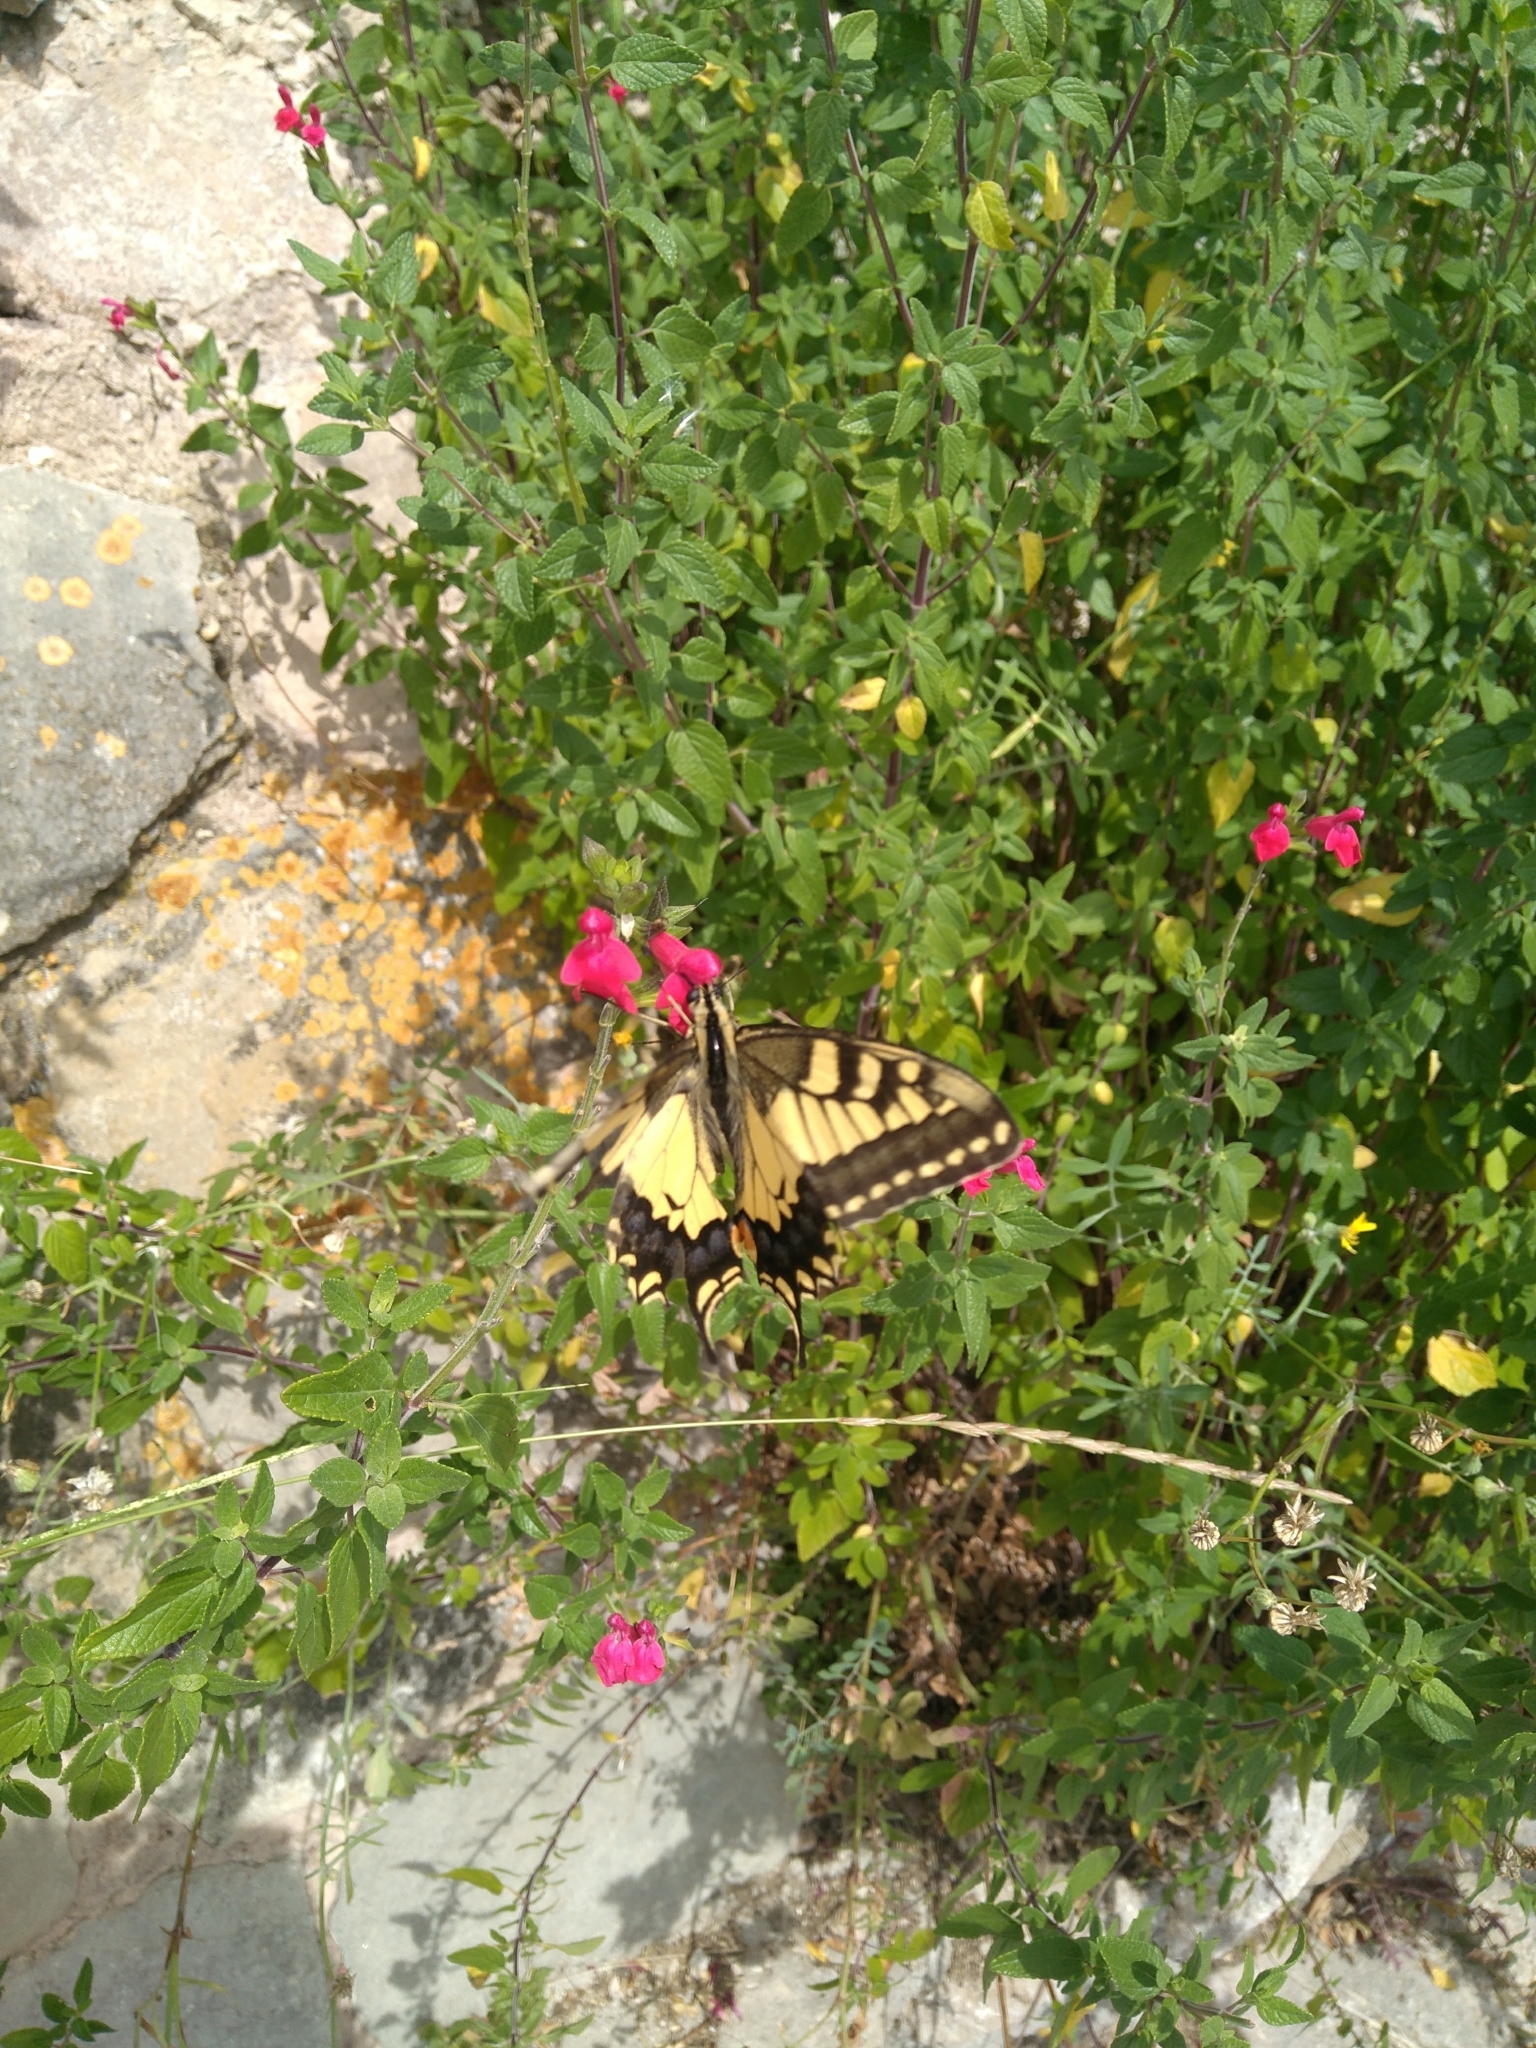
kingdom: Animalia
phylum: Arthropoda
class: Insecta
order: Lepidoptera
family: Papilionidae
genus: Papilio
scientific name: Papilio machaon
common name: Swallowtail
